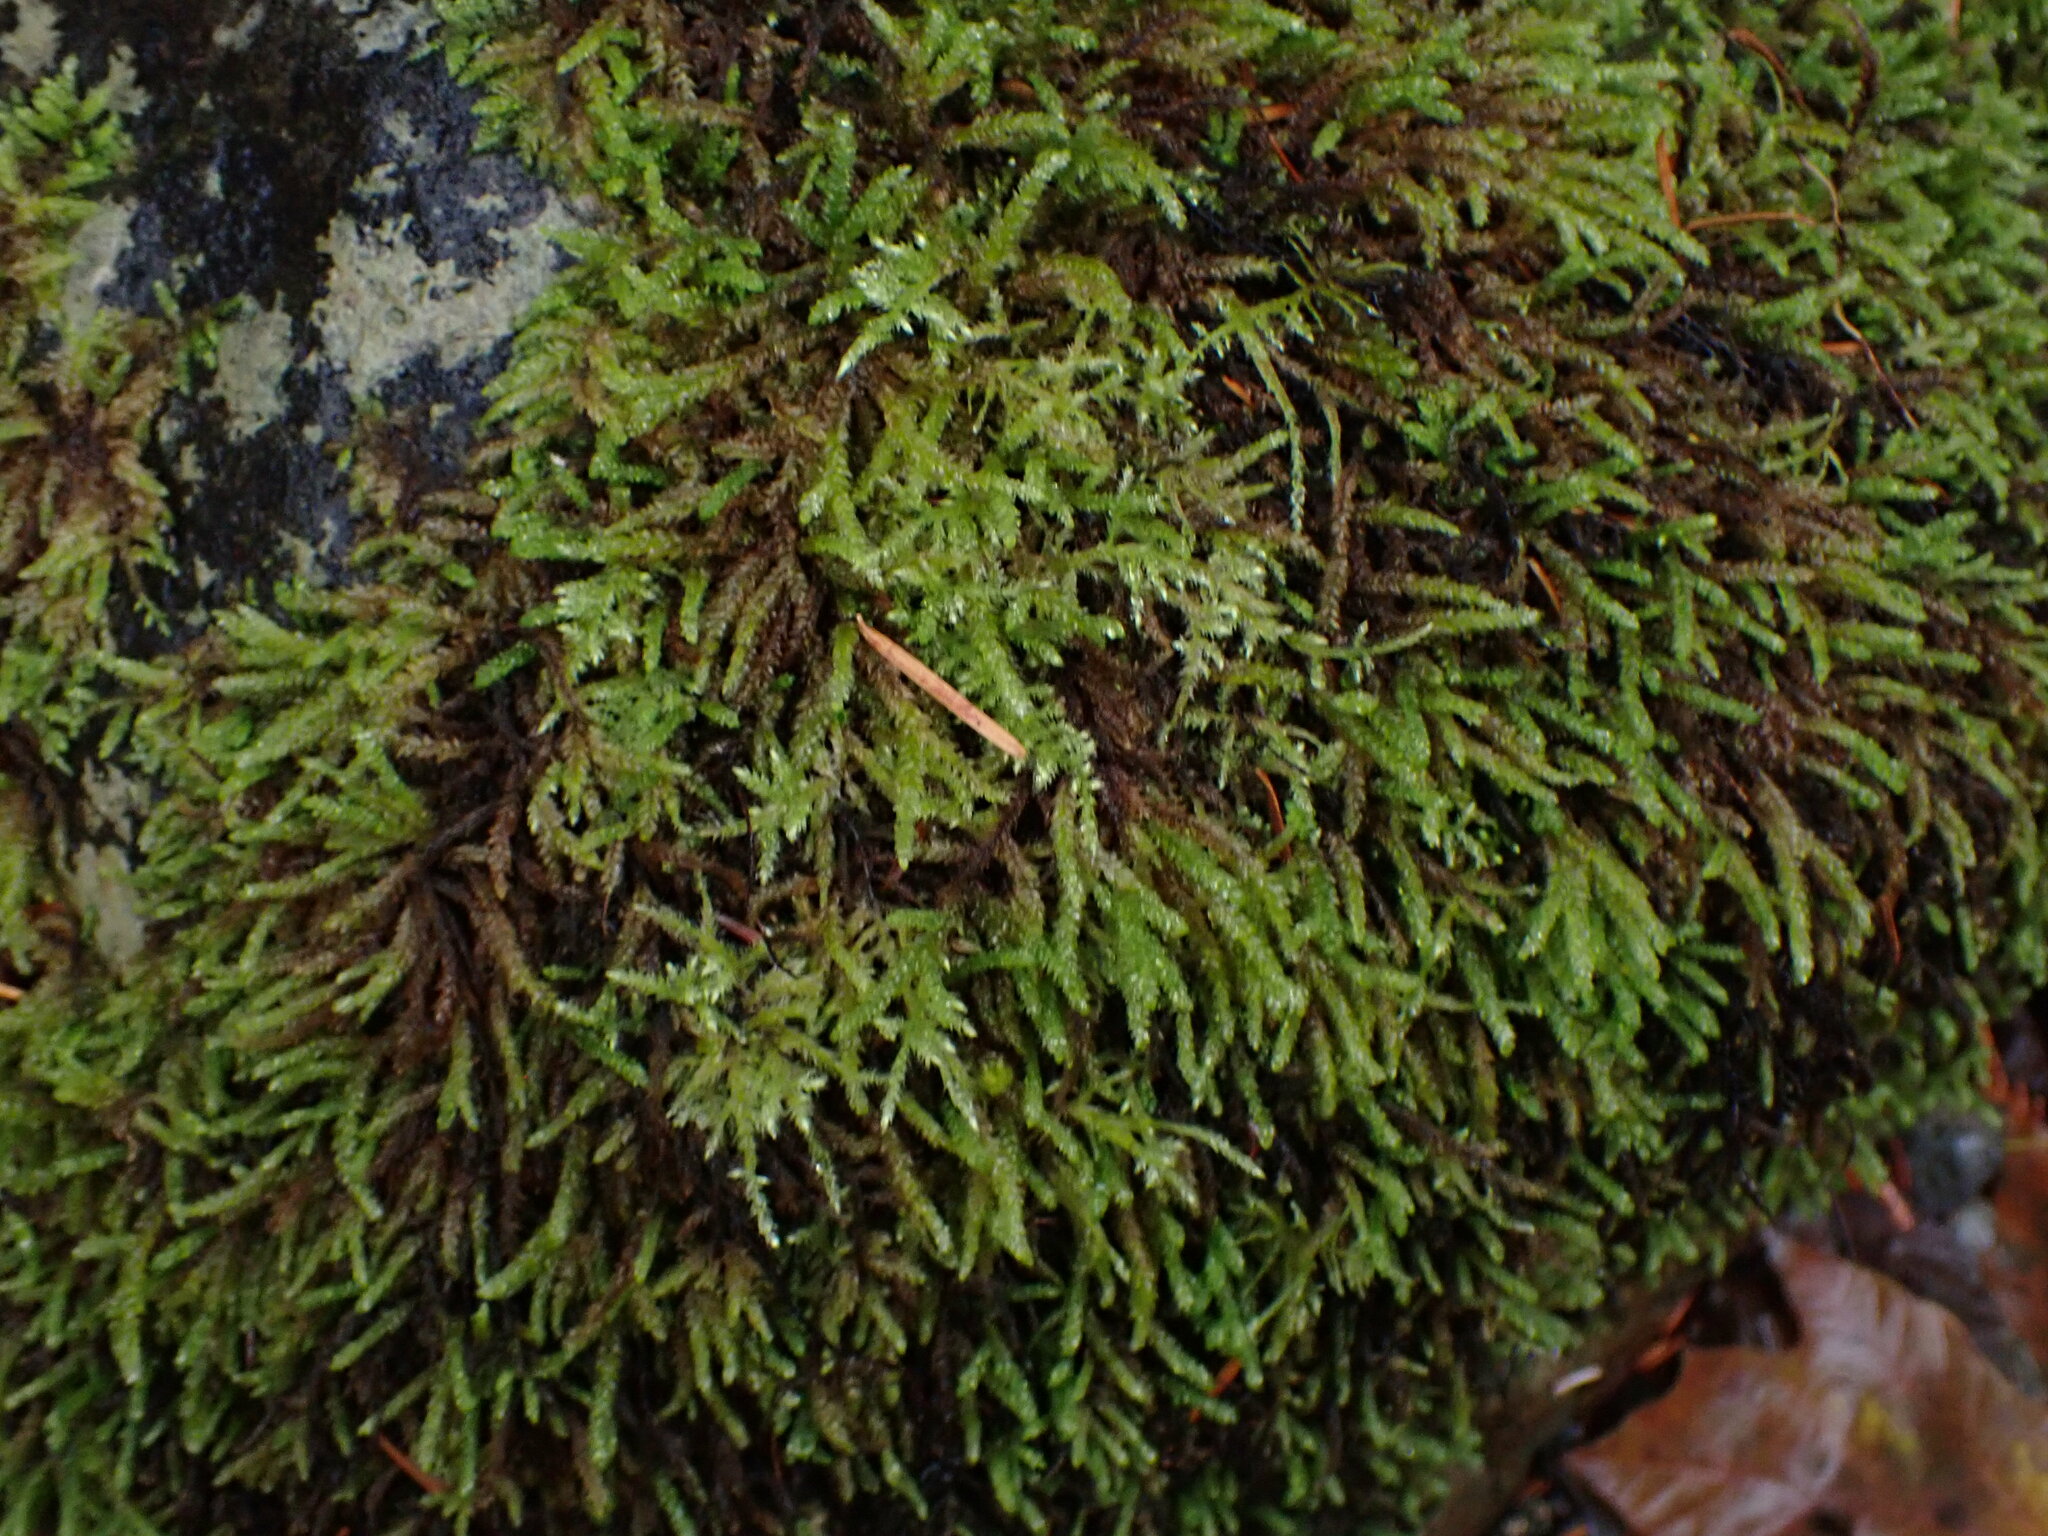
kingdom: Plantae
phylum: Bryophyta
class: Bryopsida
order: Hypnales
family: Brachytheciaceae
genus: Scleropodium
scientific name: Scleropodium obtusifolium
